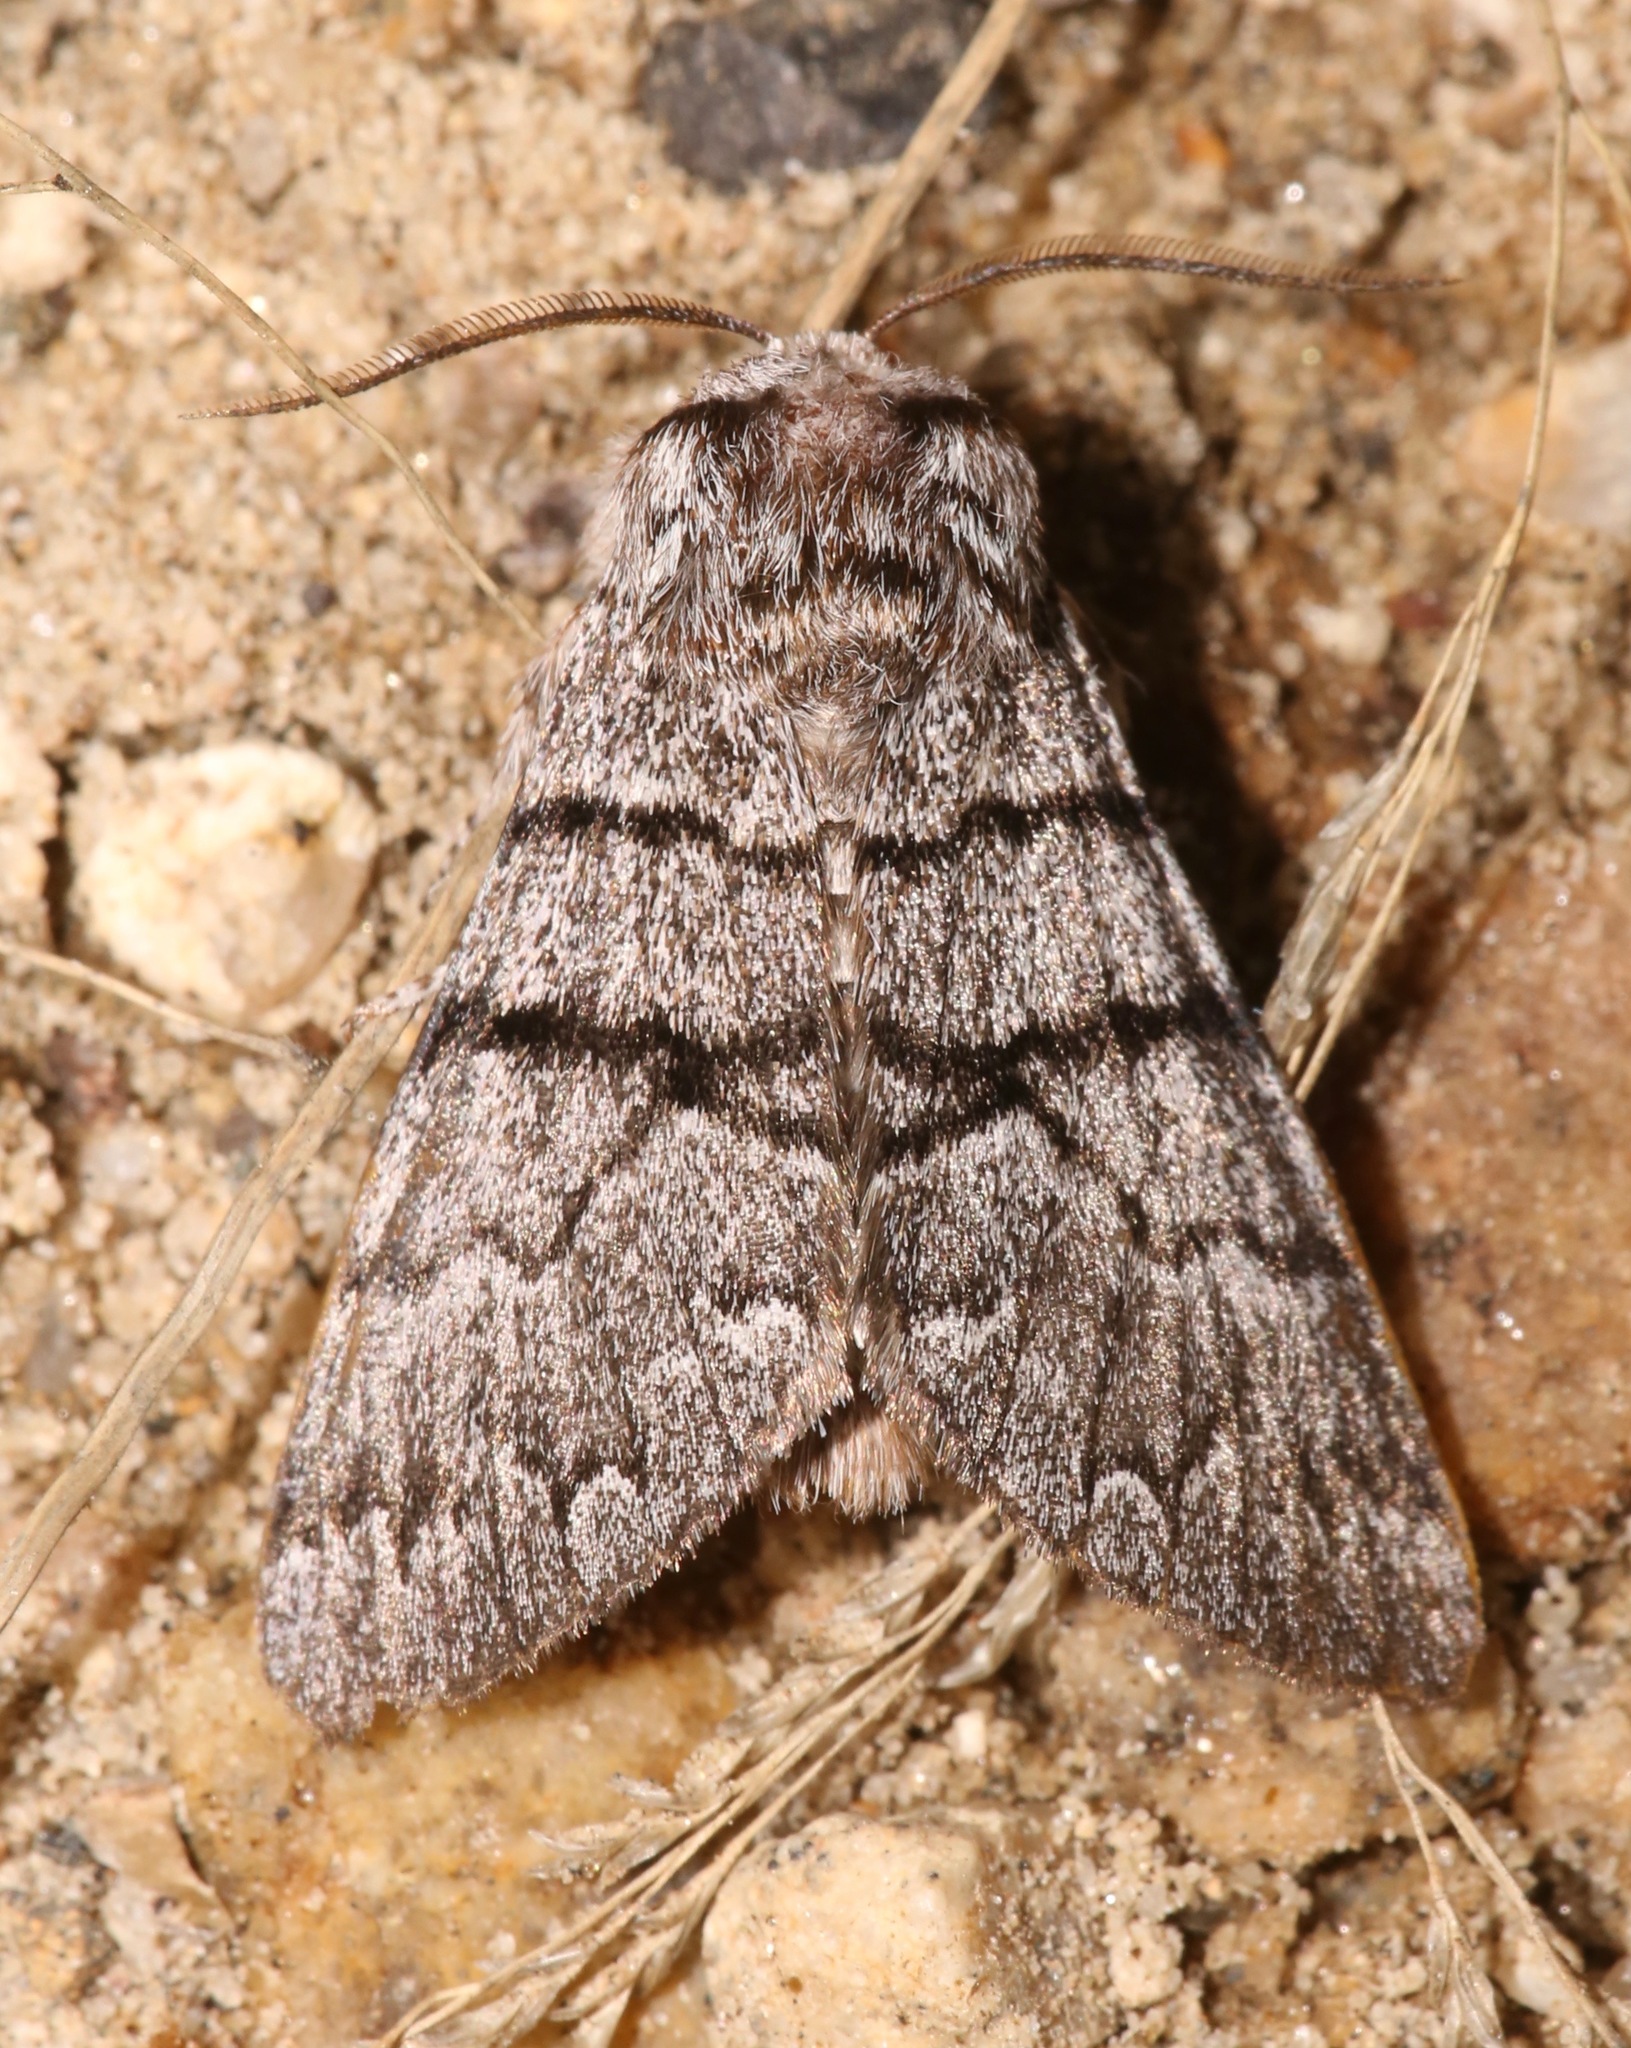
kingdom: Animalia
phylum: Arthropoda
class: Insecta
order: Lepidoptera
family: Noctuidae
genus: Panthea
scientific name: Panthea greyi
